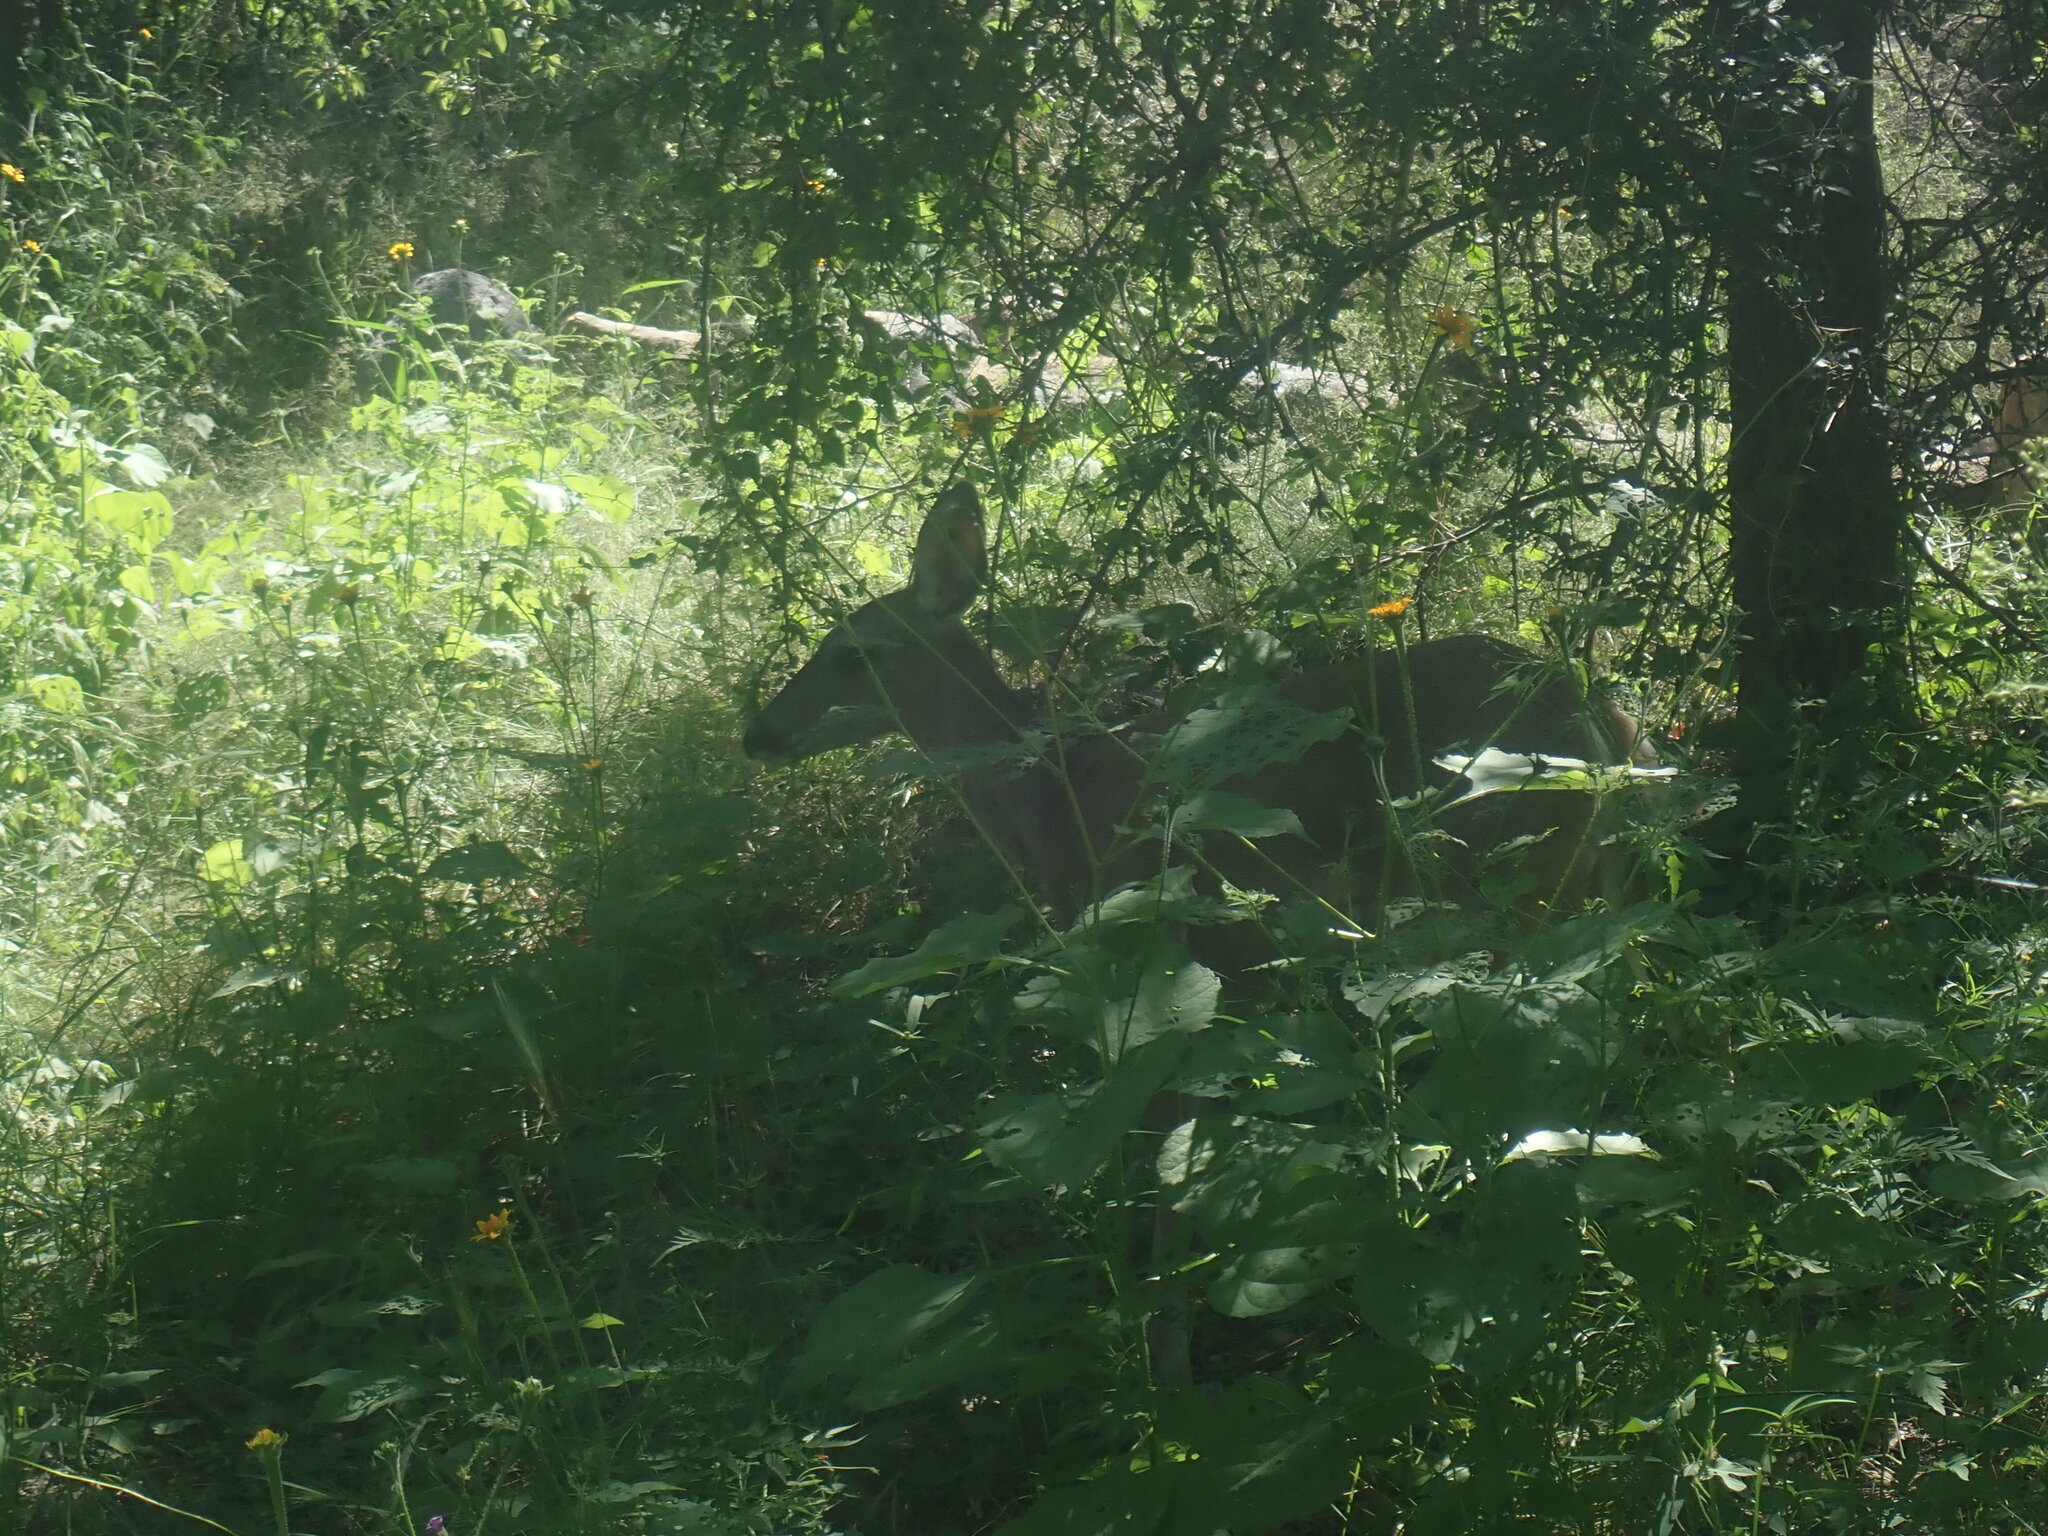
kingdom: Animalia
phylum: Chordata
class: Mammalia
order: Artiodactyla
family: Cervidae
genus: Odocoileus
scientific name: Odocoileus virginianus
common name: White-tailed deer
